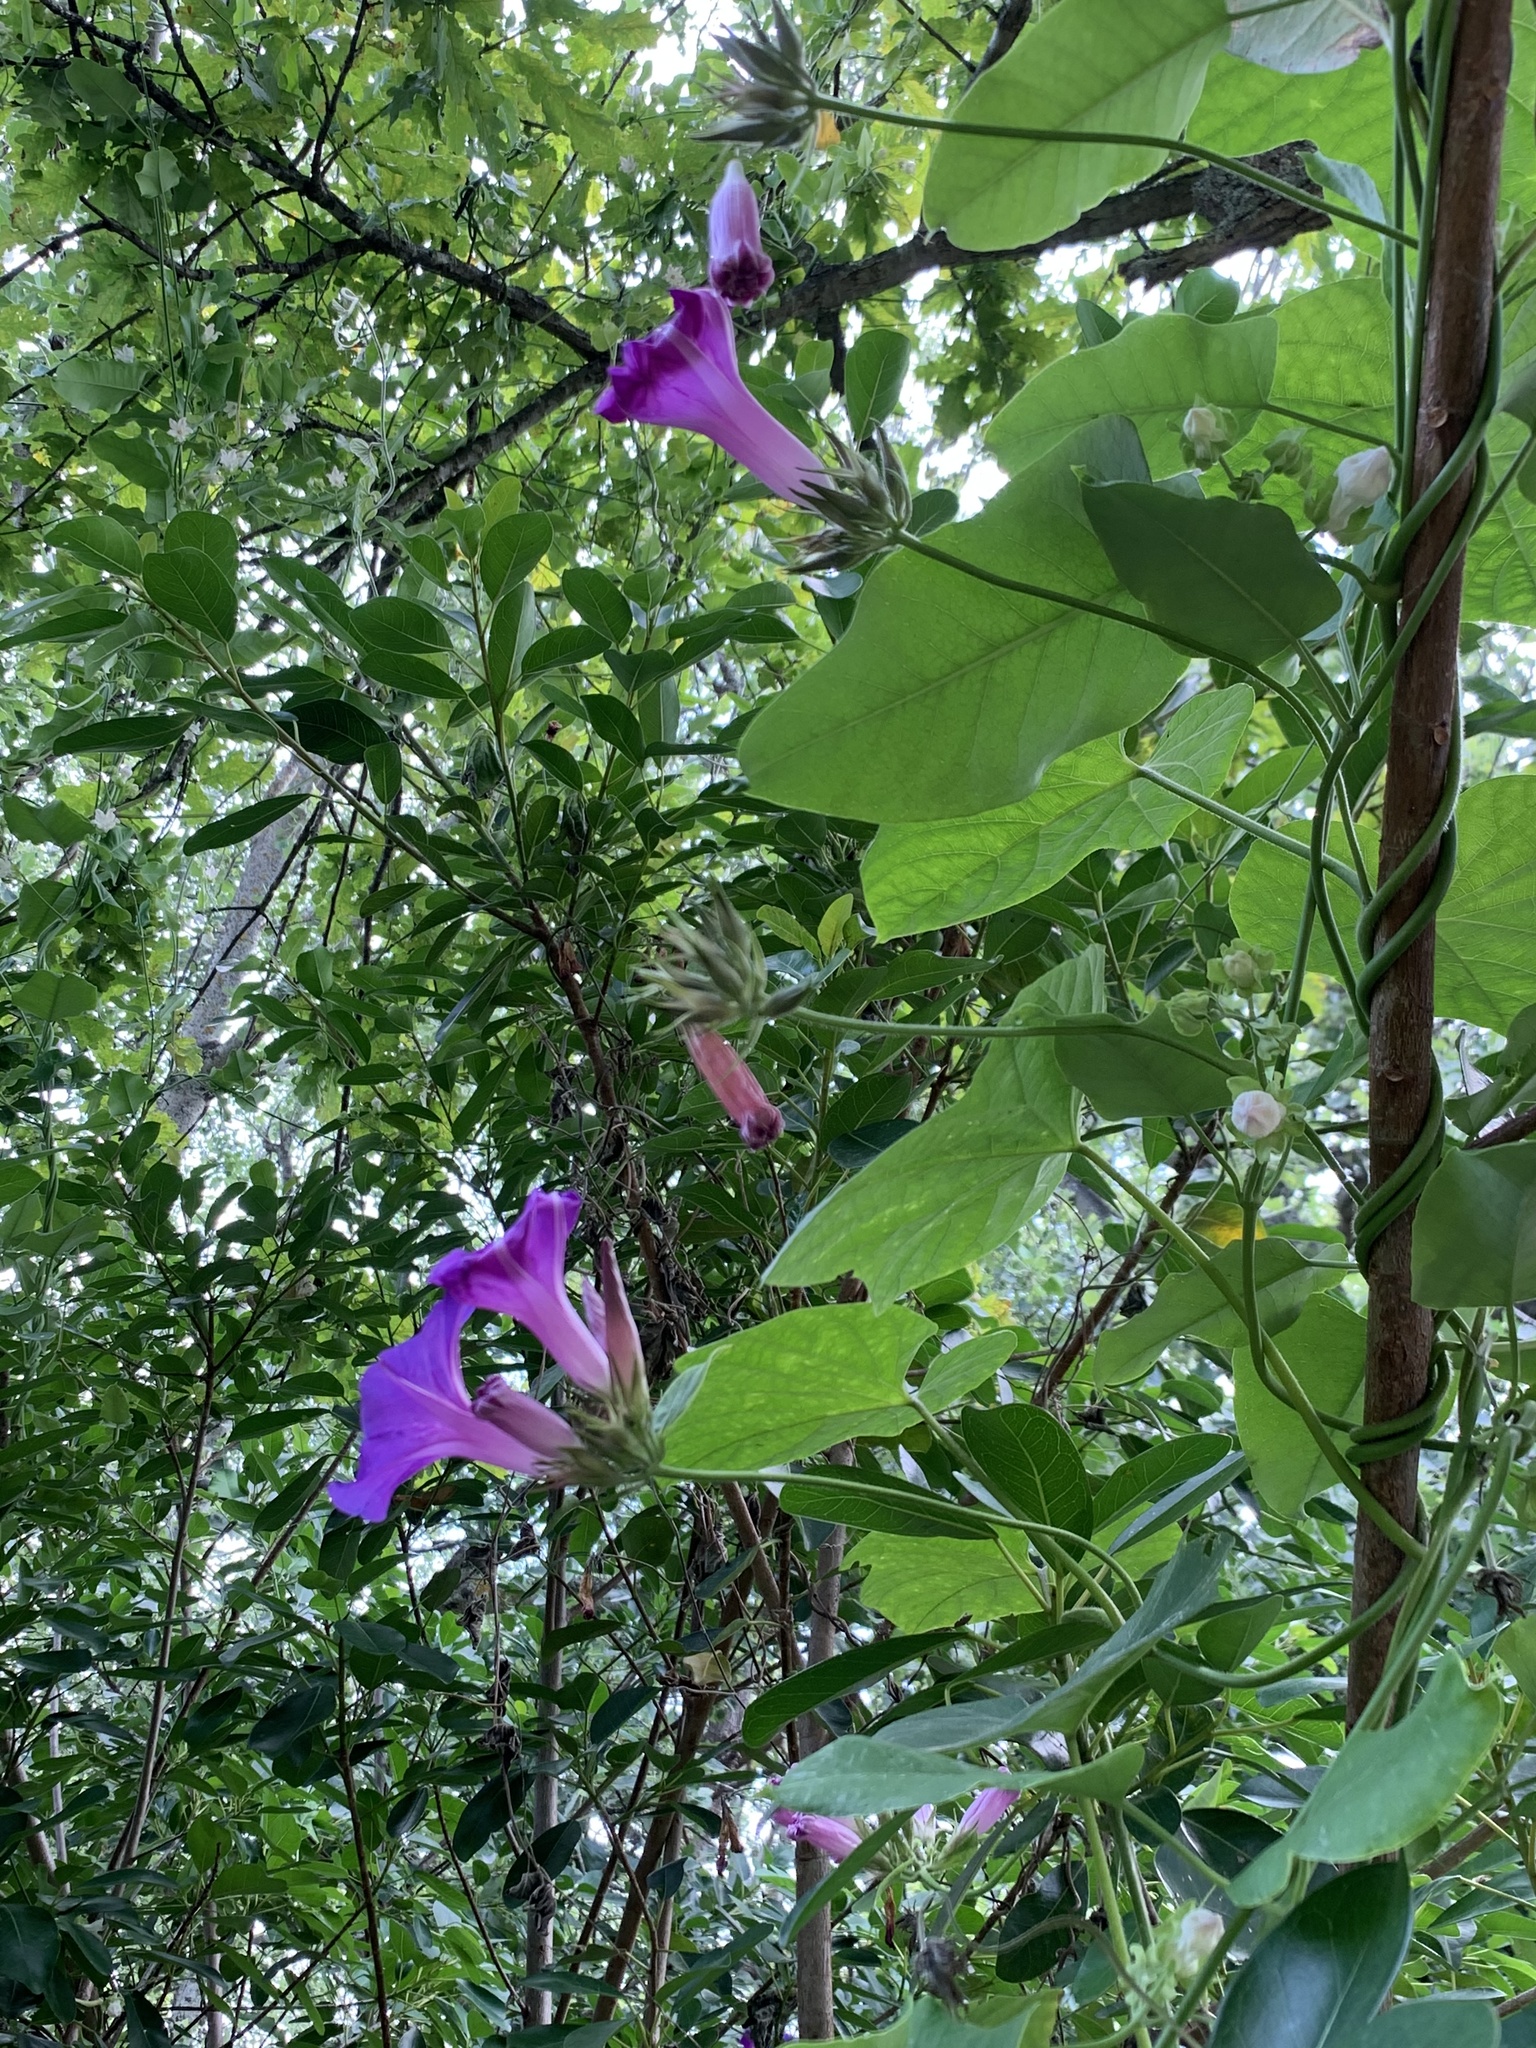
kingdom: Plantae
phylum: Tracheophyta
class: Magnoliopsida
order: Solanales
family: Convolvulaceae
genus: Ipomoea
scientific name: Ipomoea indica
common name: Blue dawnflower
